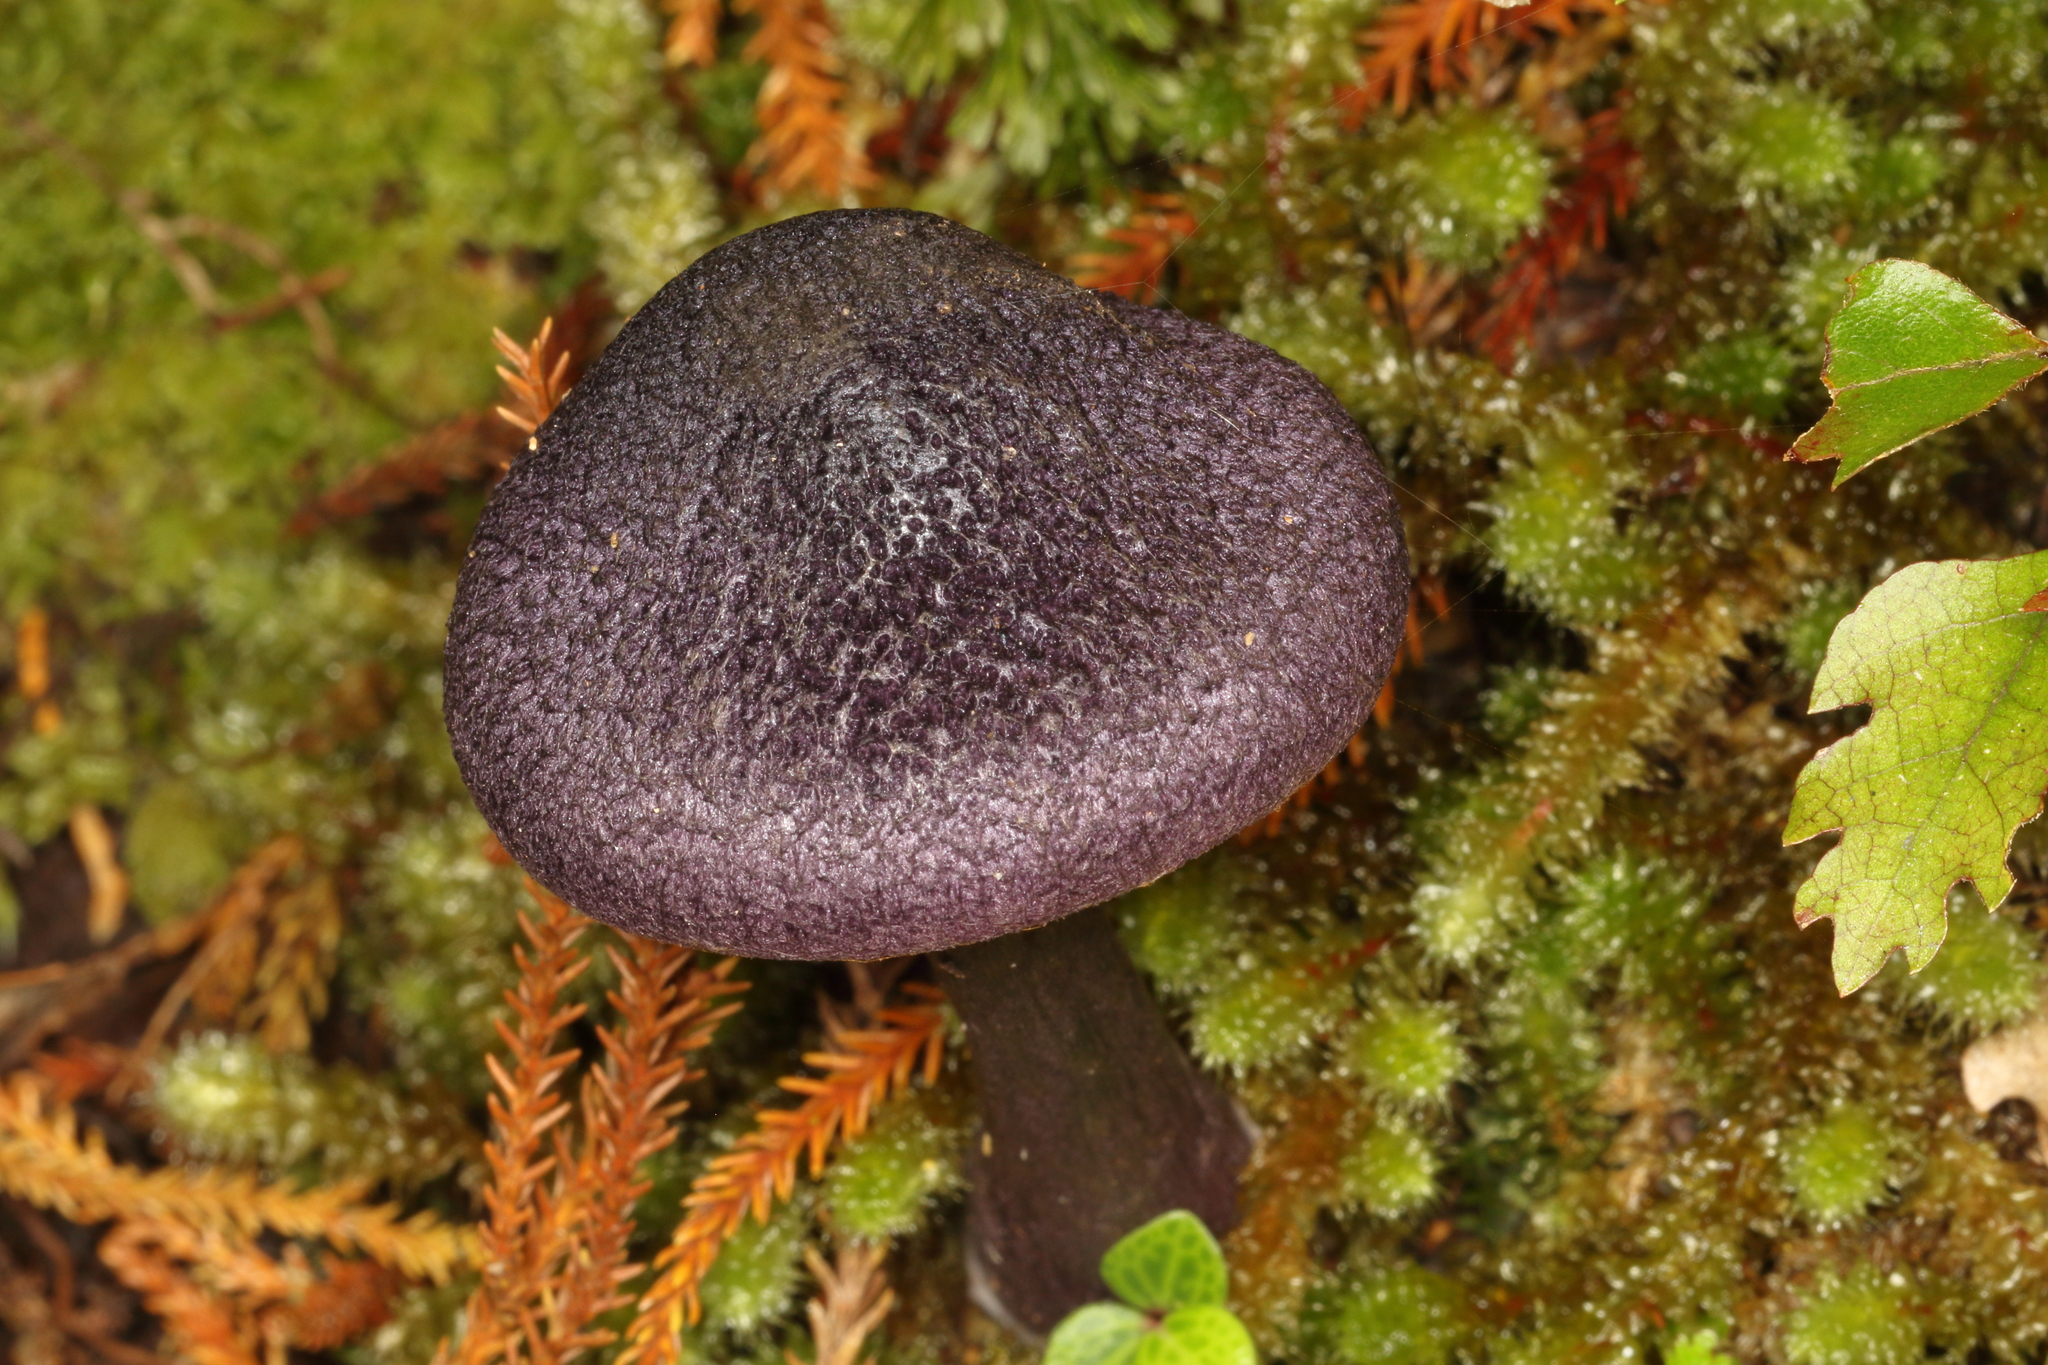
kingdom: Fungi
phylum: Basidiomycota
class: Agaricomycetes
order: Agaricales
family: Cortinariaceae
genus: Cortinarius
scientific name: Cortinarius carneipallidus
